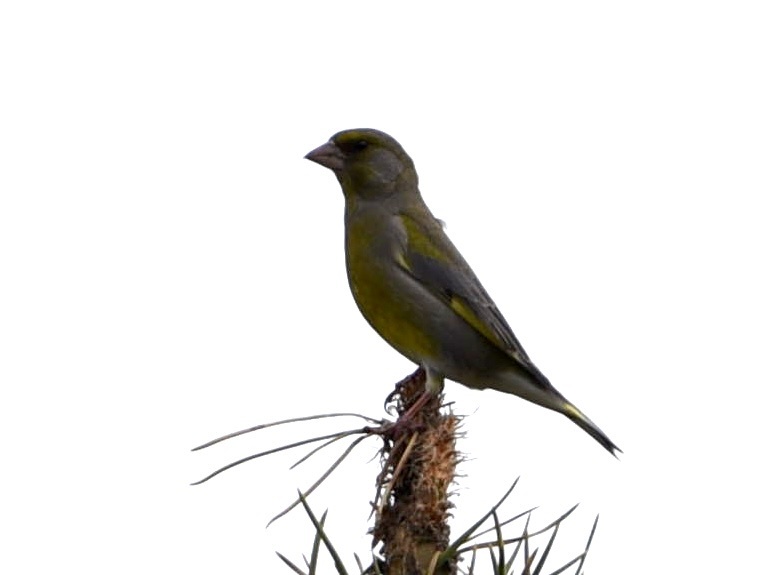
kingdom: Plantae
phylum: Tracheophyta
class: Liliopsida
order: Poales
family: Poaceae
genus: Chloris
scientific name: Chloris chloris
